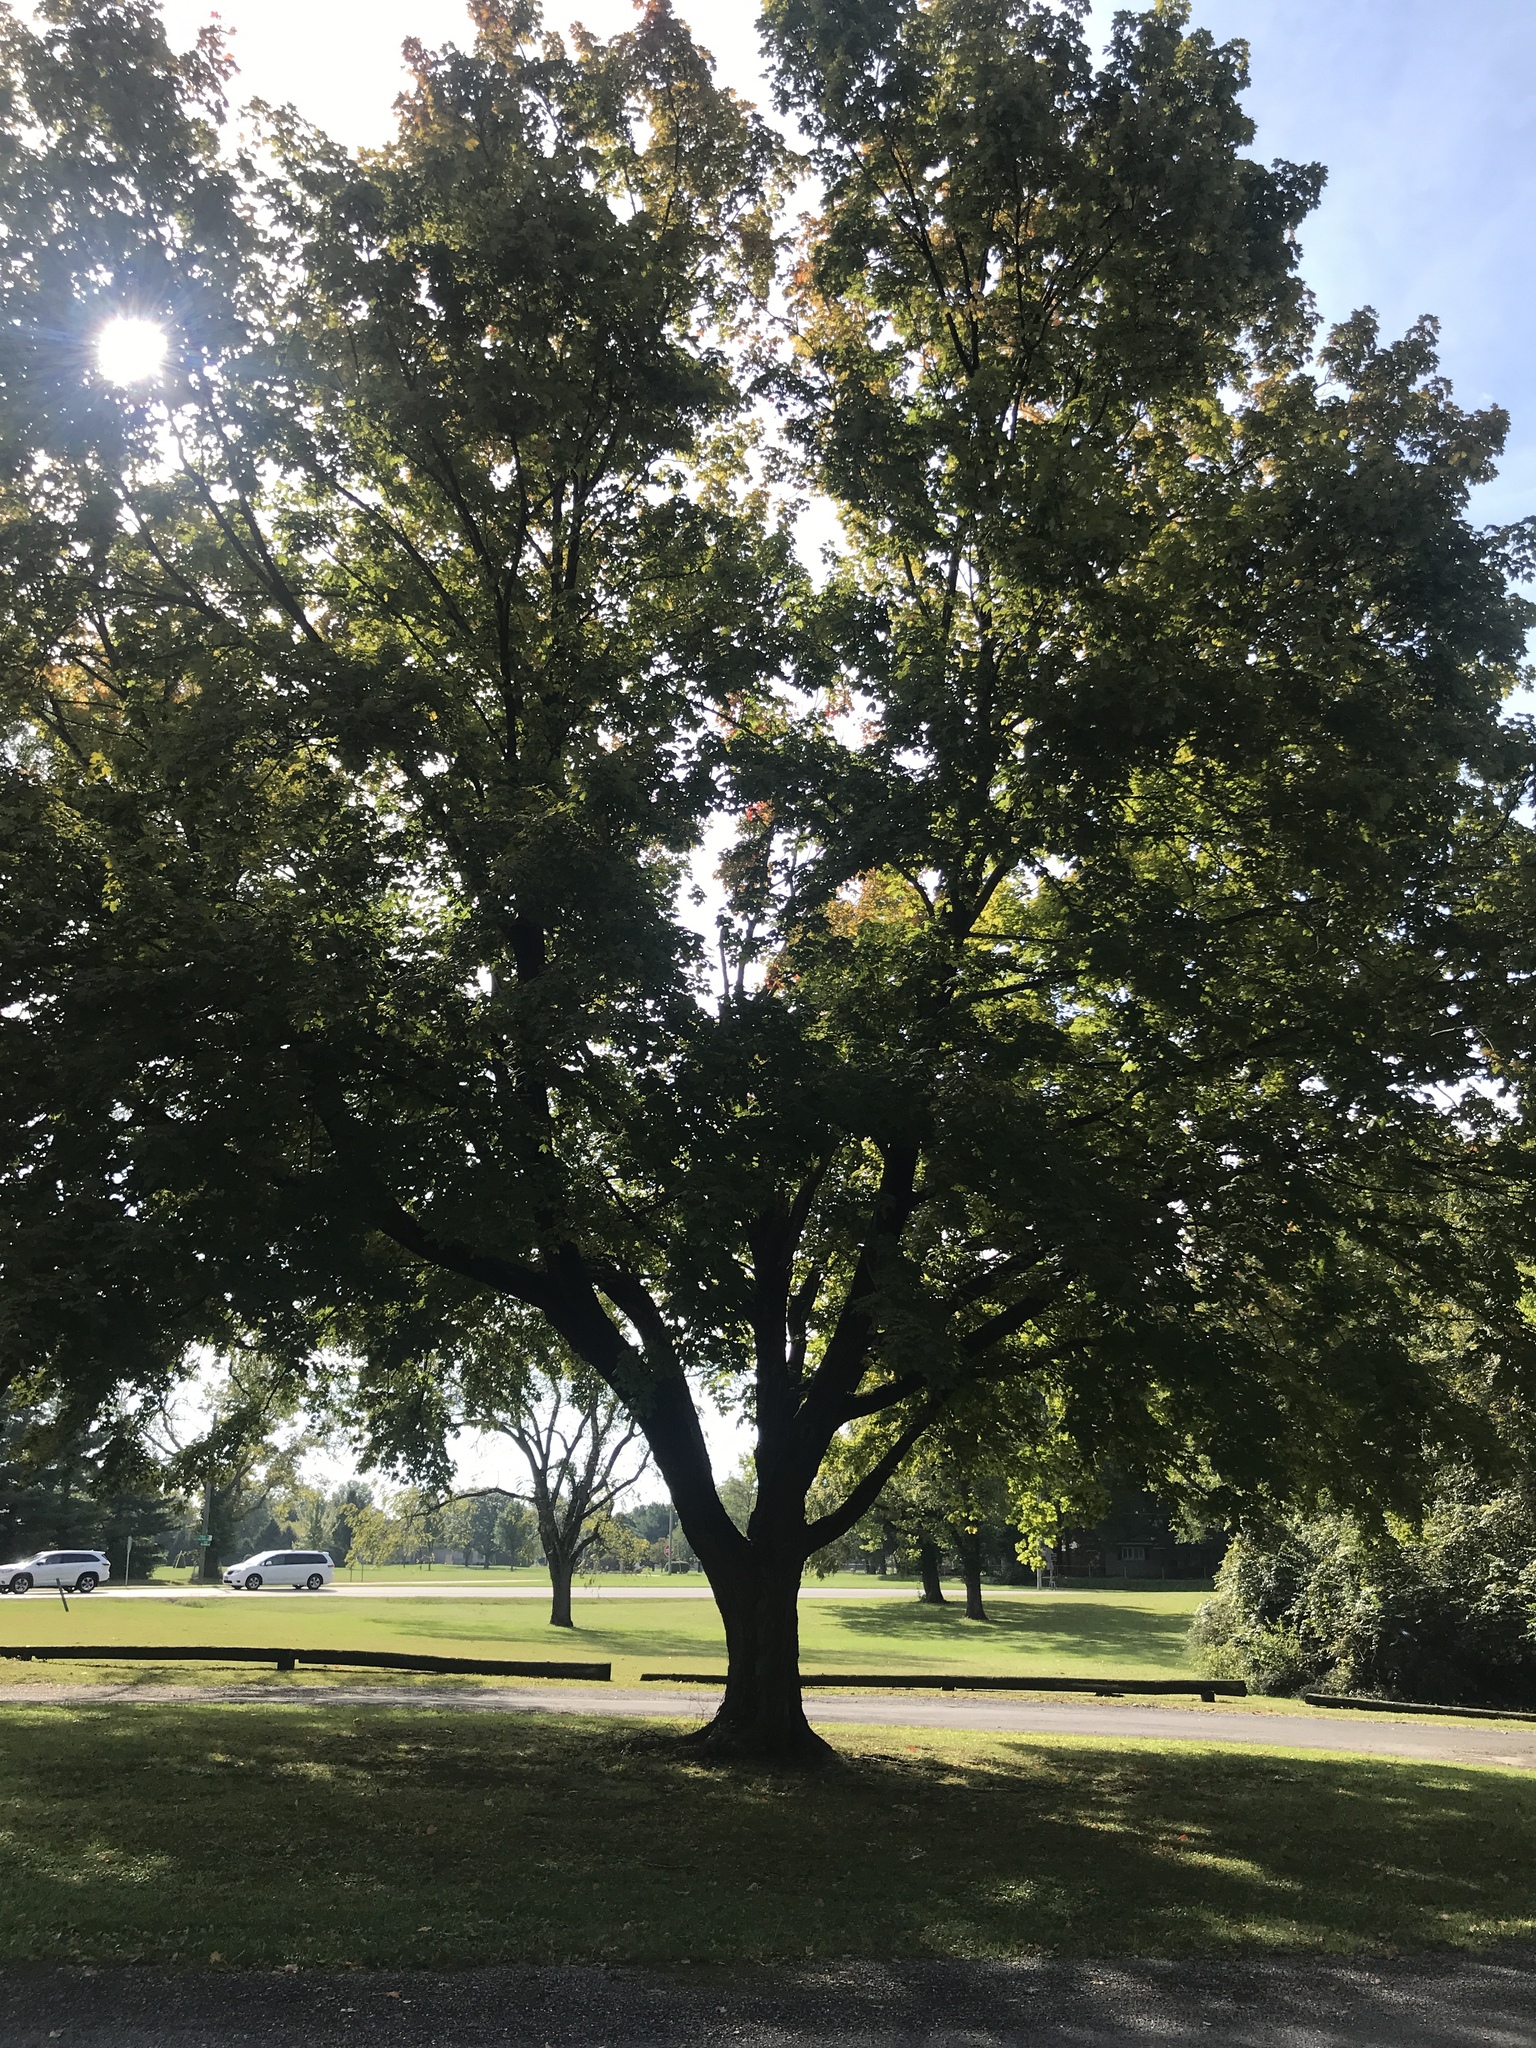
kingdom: Plantae
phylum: Tracheophyta
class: Magnoliopsida
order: Sapindales
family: Sapindaceae
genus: Acer
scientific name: Acer saccharum
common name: Sugar maple
